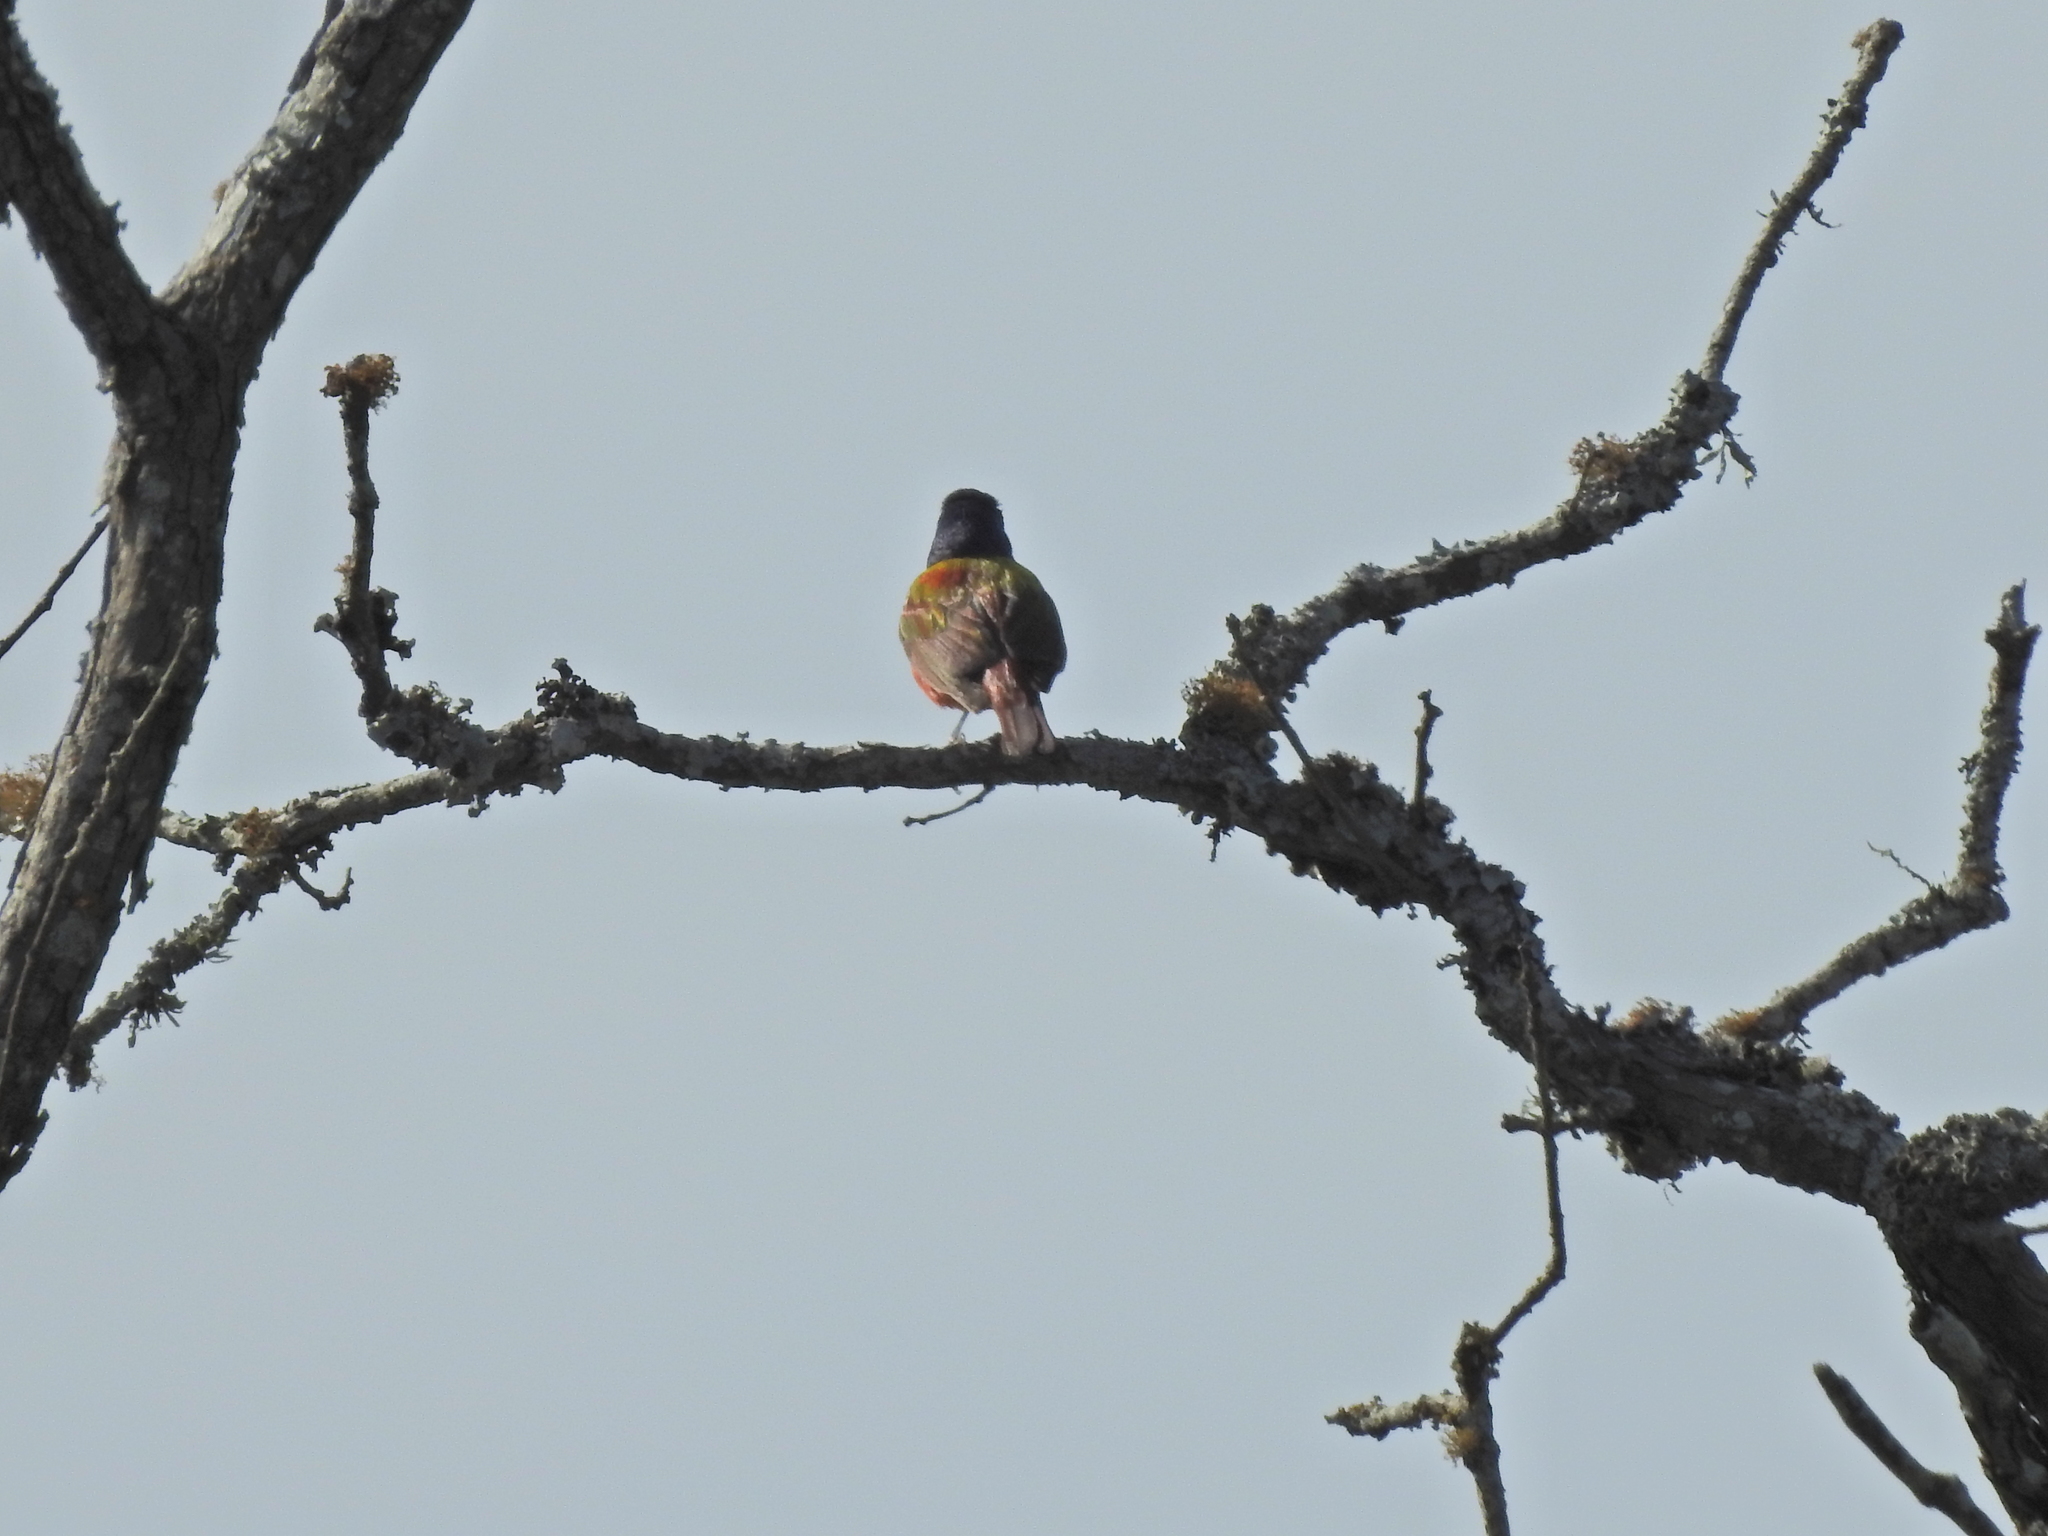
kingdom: Animalia
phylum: Chordata
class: Aves
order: Passeriformes
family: Cardinalidae
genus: Passerina
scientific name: Passerina ciris
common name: Painted bunting
